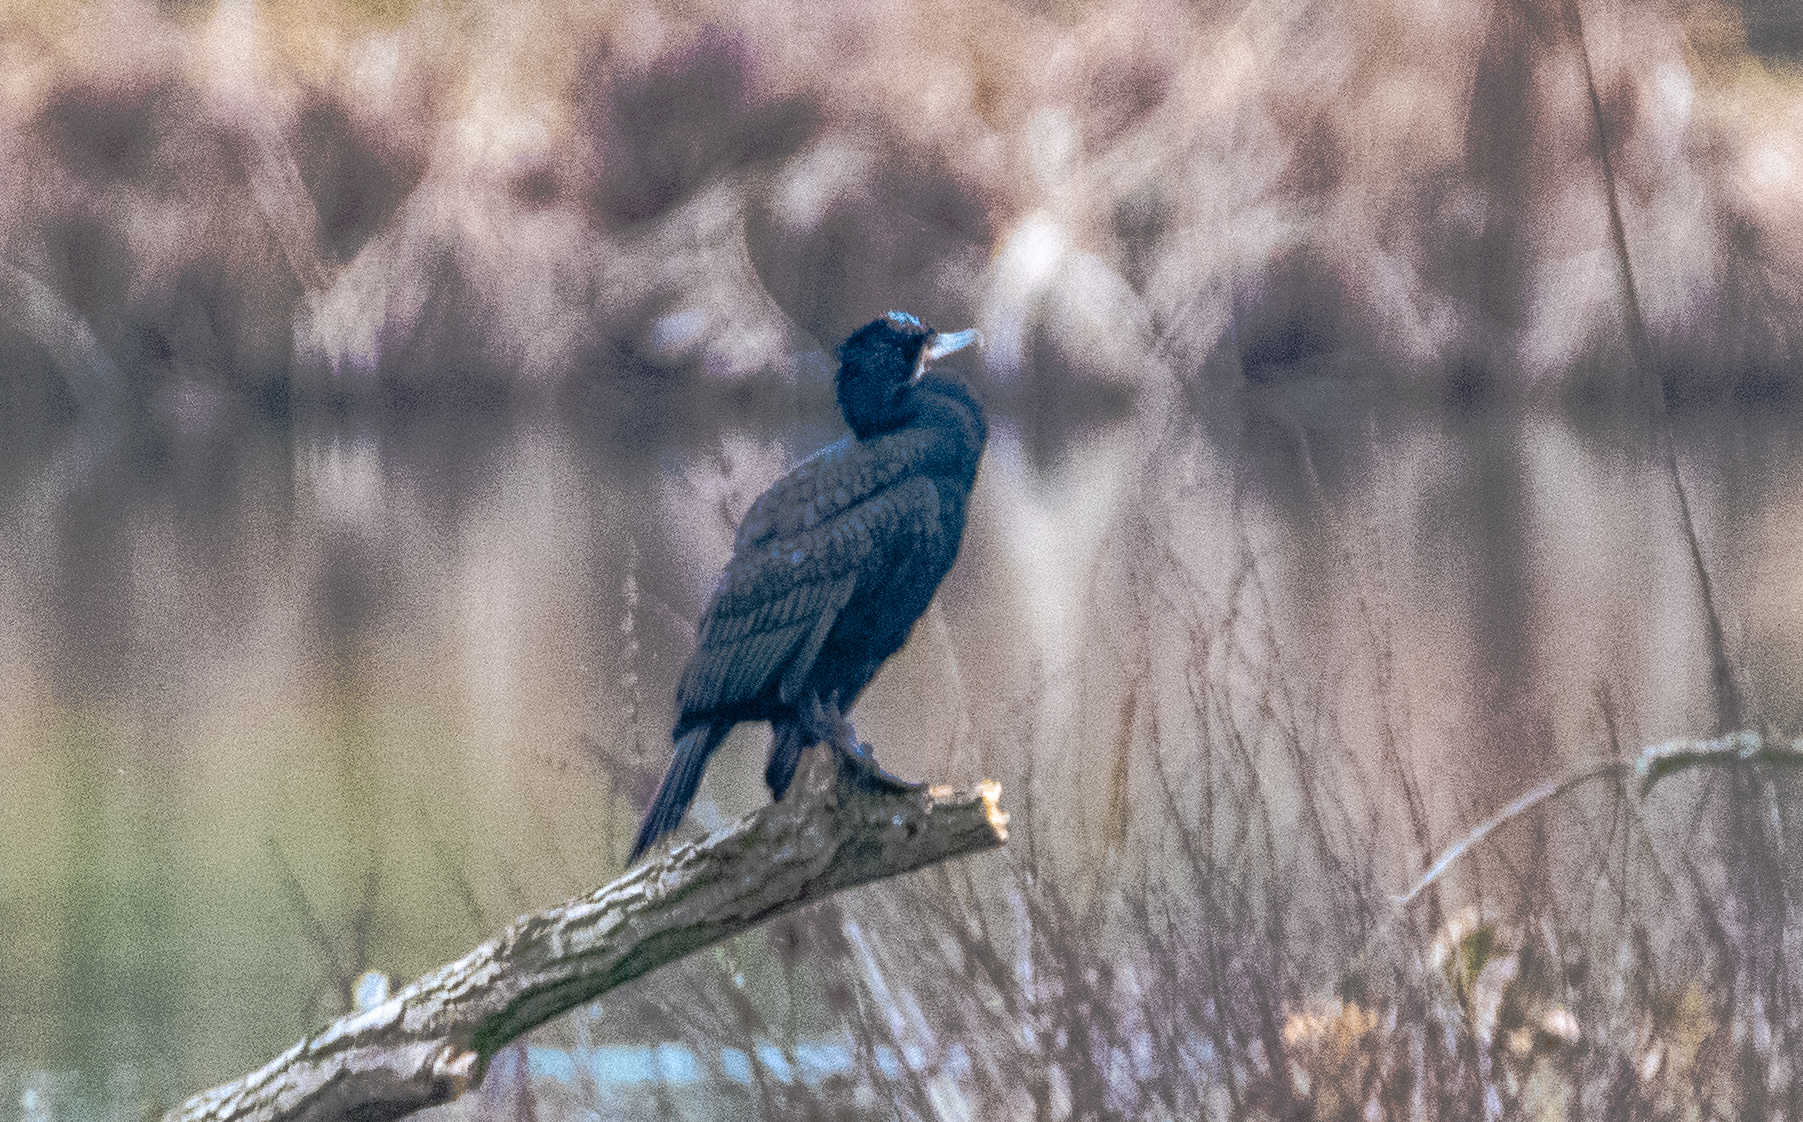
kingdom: Animalia
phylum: Chordata
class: Aves
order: Suliformes
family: Phalacrocoracidae
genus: Phalacrocorax
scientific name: Phalacrocorax carbo
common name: Great cormorant
